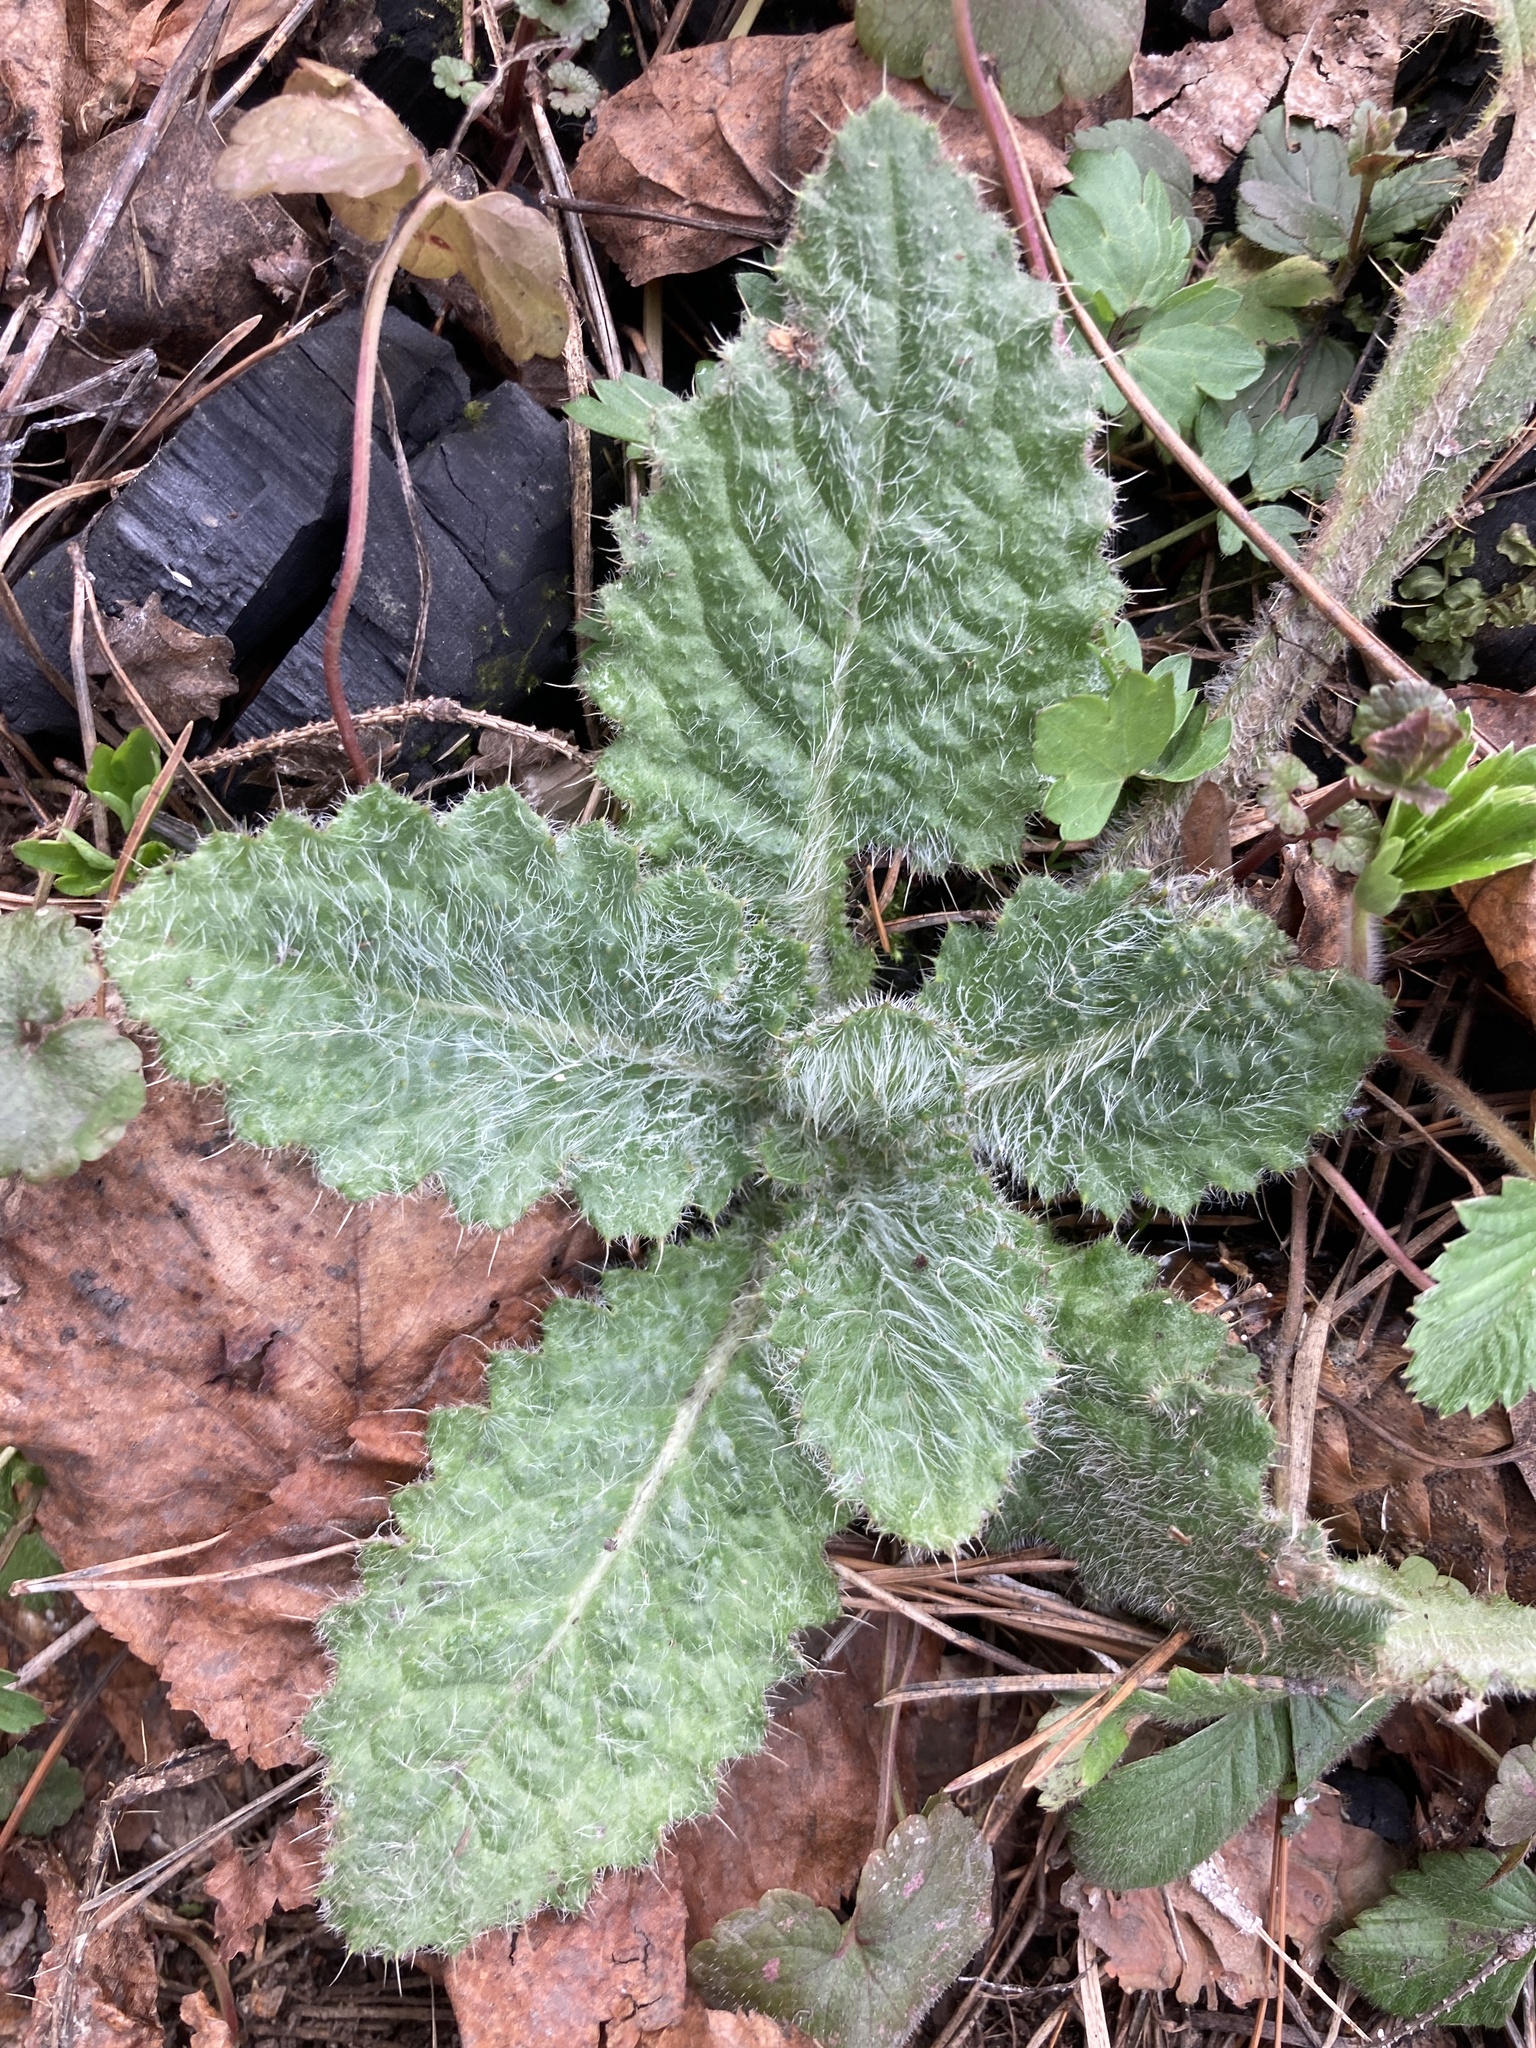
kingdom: Plantae
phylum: Tracheophyta
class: Magnoliopsida
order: Asterales
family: Asteraceae
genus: Cirsium
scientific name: Cirsium vulgare
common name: Bull thistle
